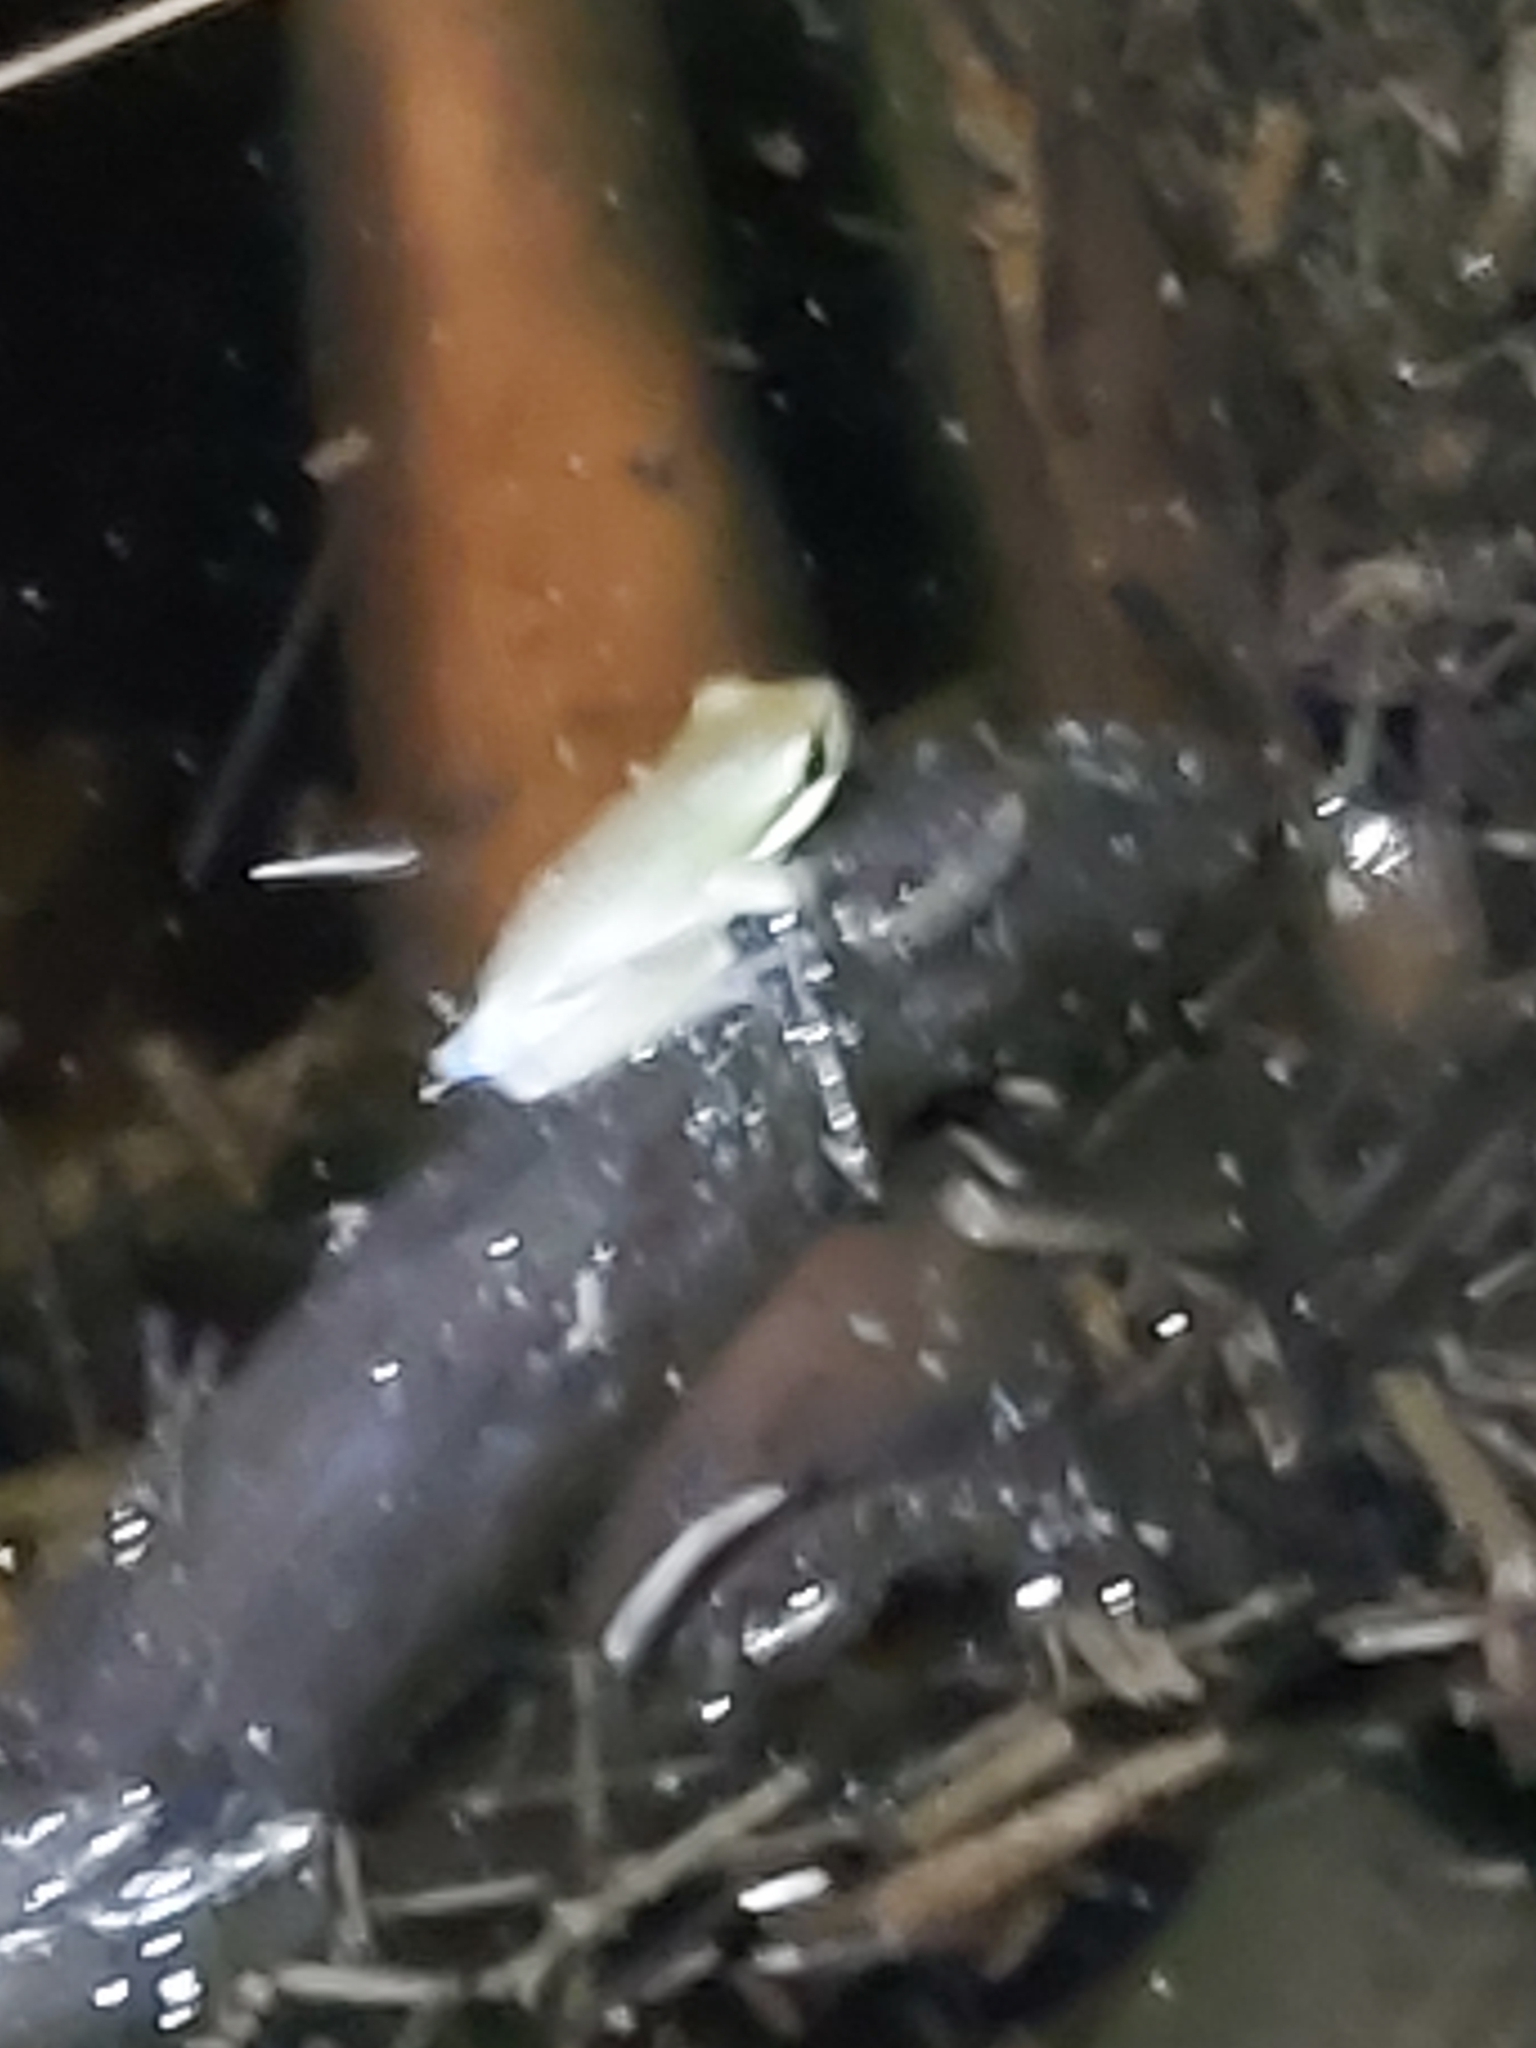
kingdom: Animalia
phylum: Chordata
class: Amphibia
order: Anura
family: Pelodryadidae
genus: Litoria
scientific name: Litoria fallax
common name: Eastern dwarf treefrog
